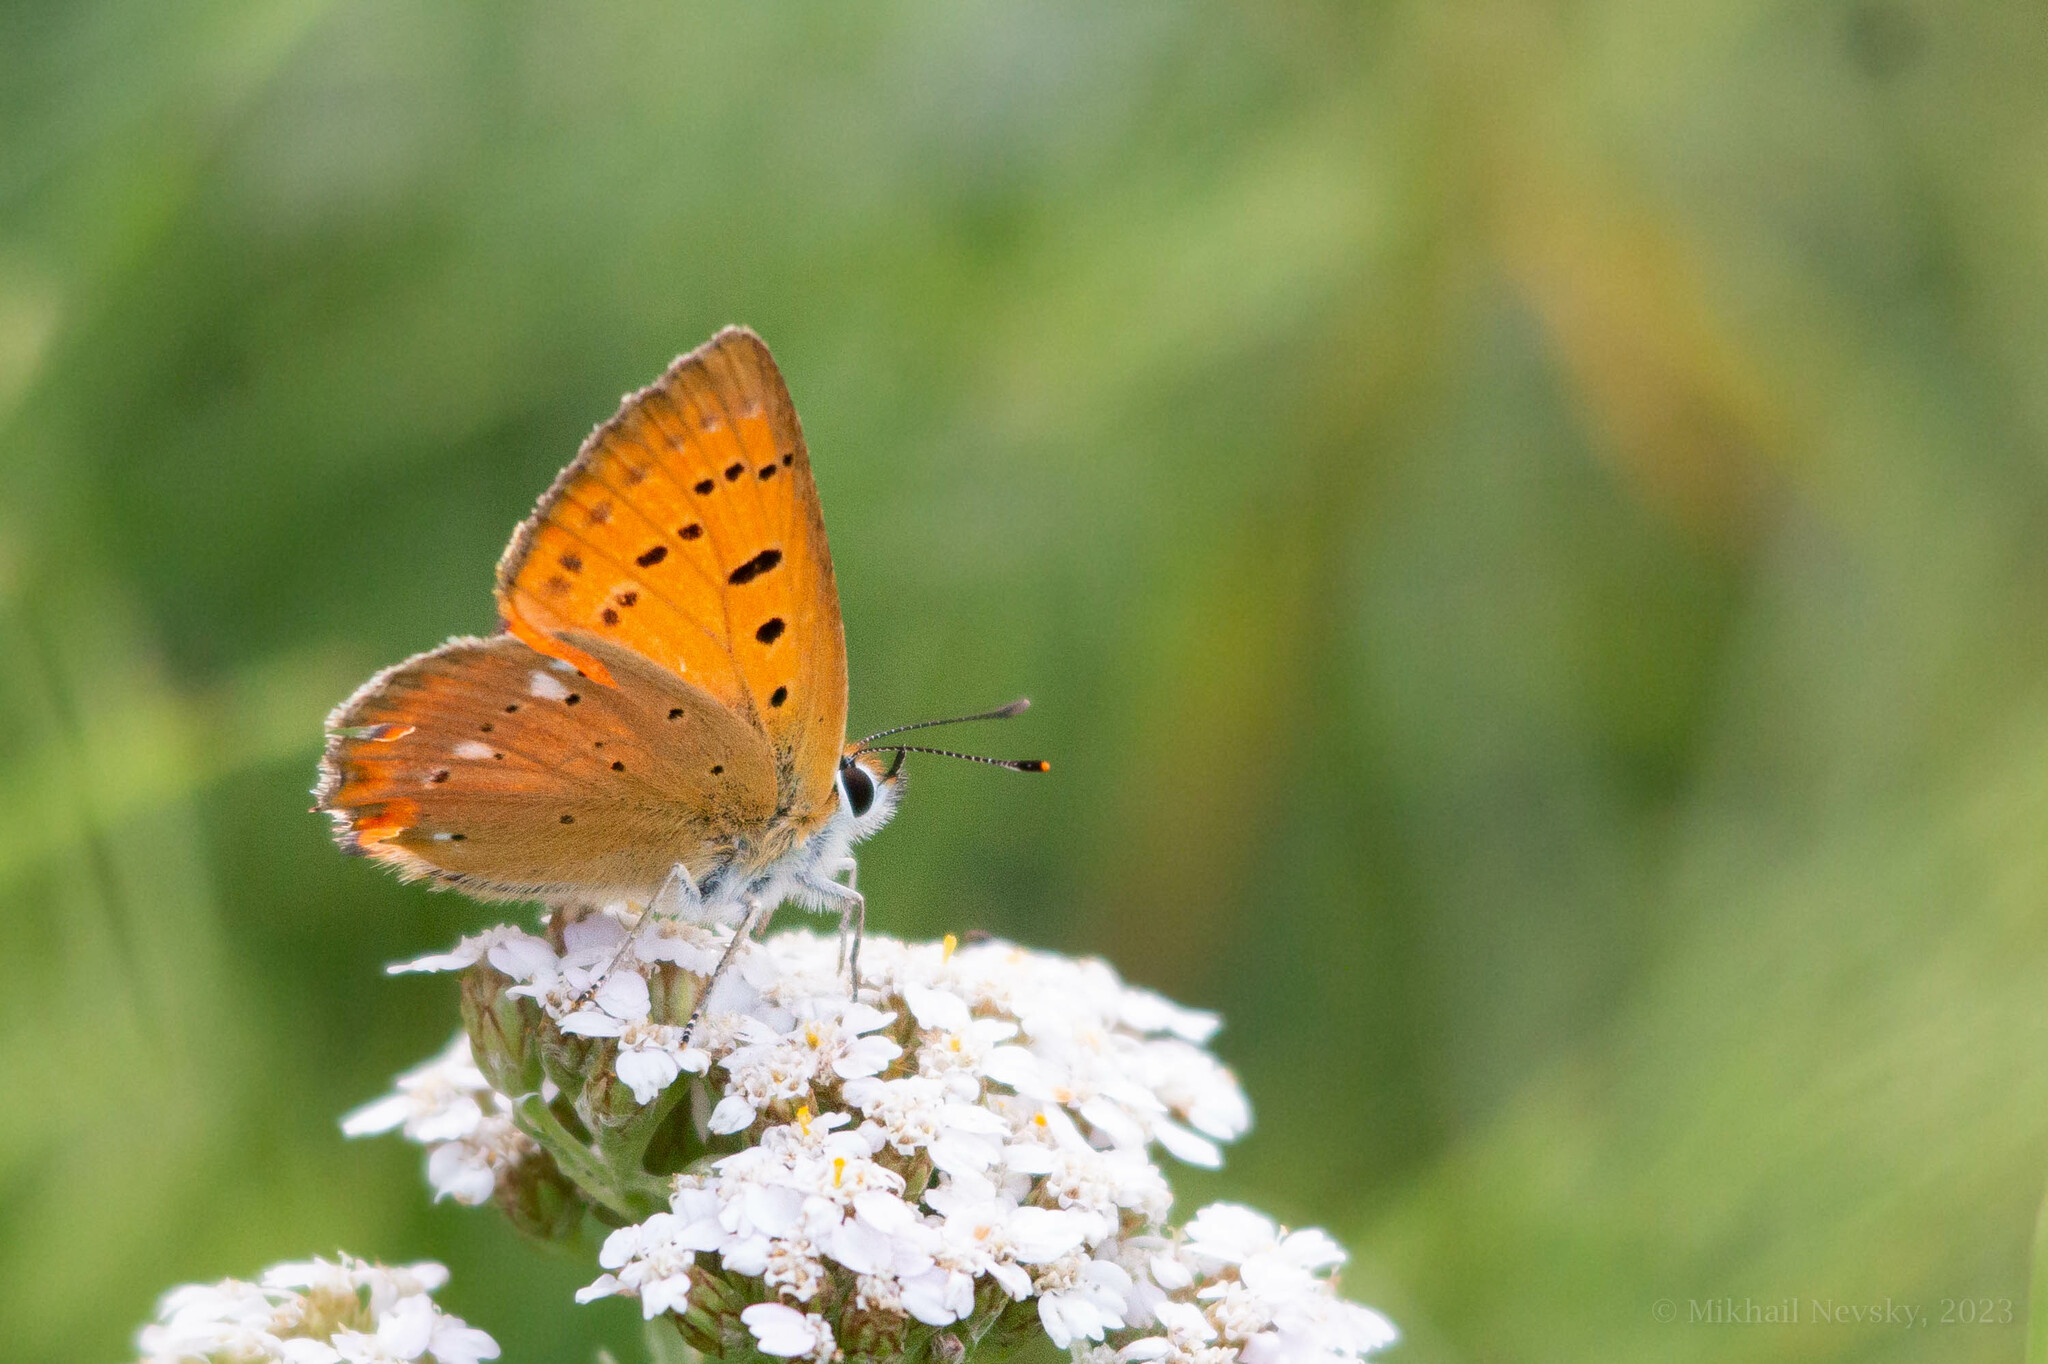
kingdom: Animalia
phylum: Arthropoda
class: Insecta
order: Lepidoptera
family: Lycaenidae
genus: Lycaena
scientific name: Lycaena virgaureae
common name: Scarce copper
